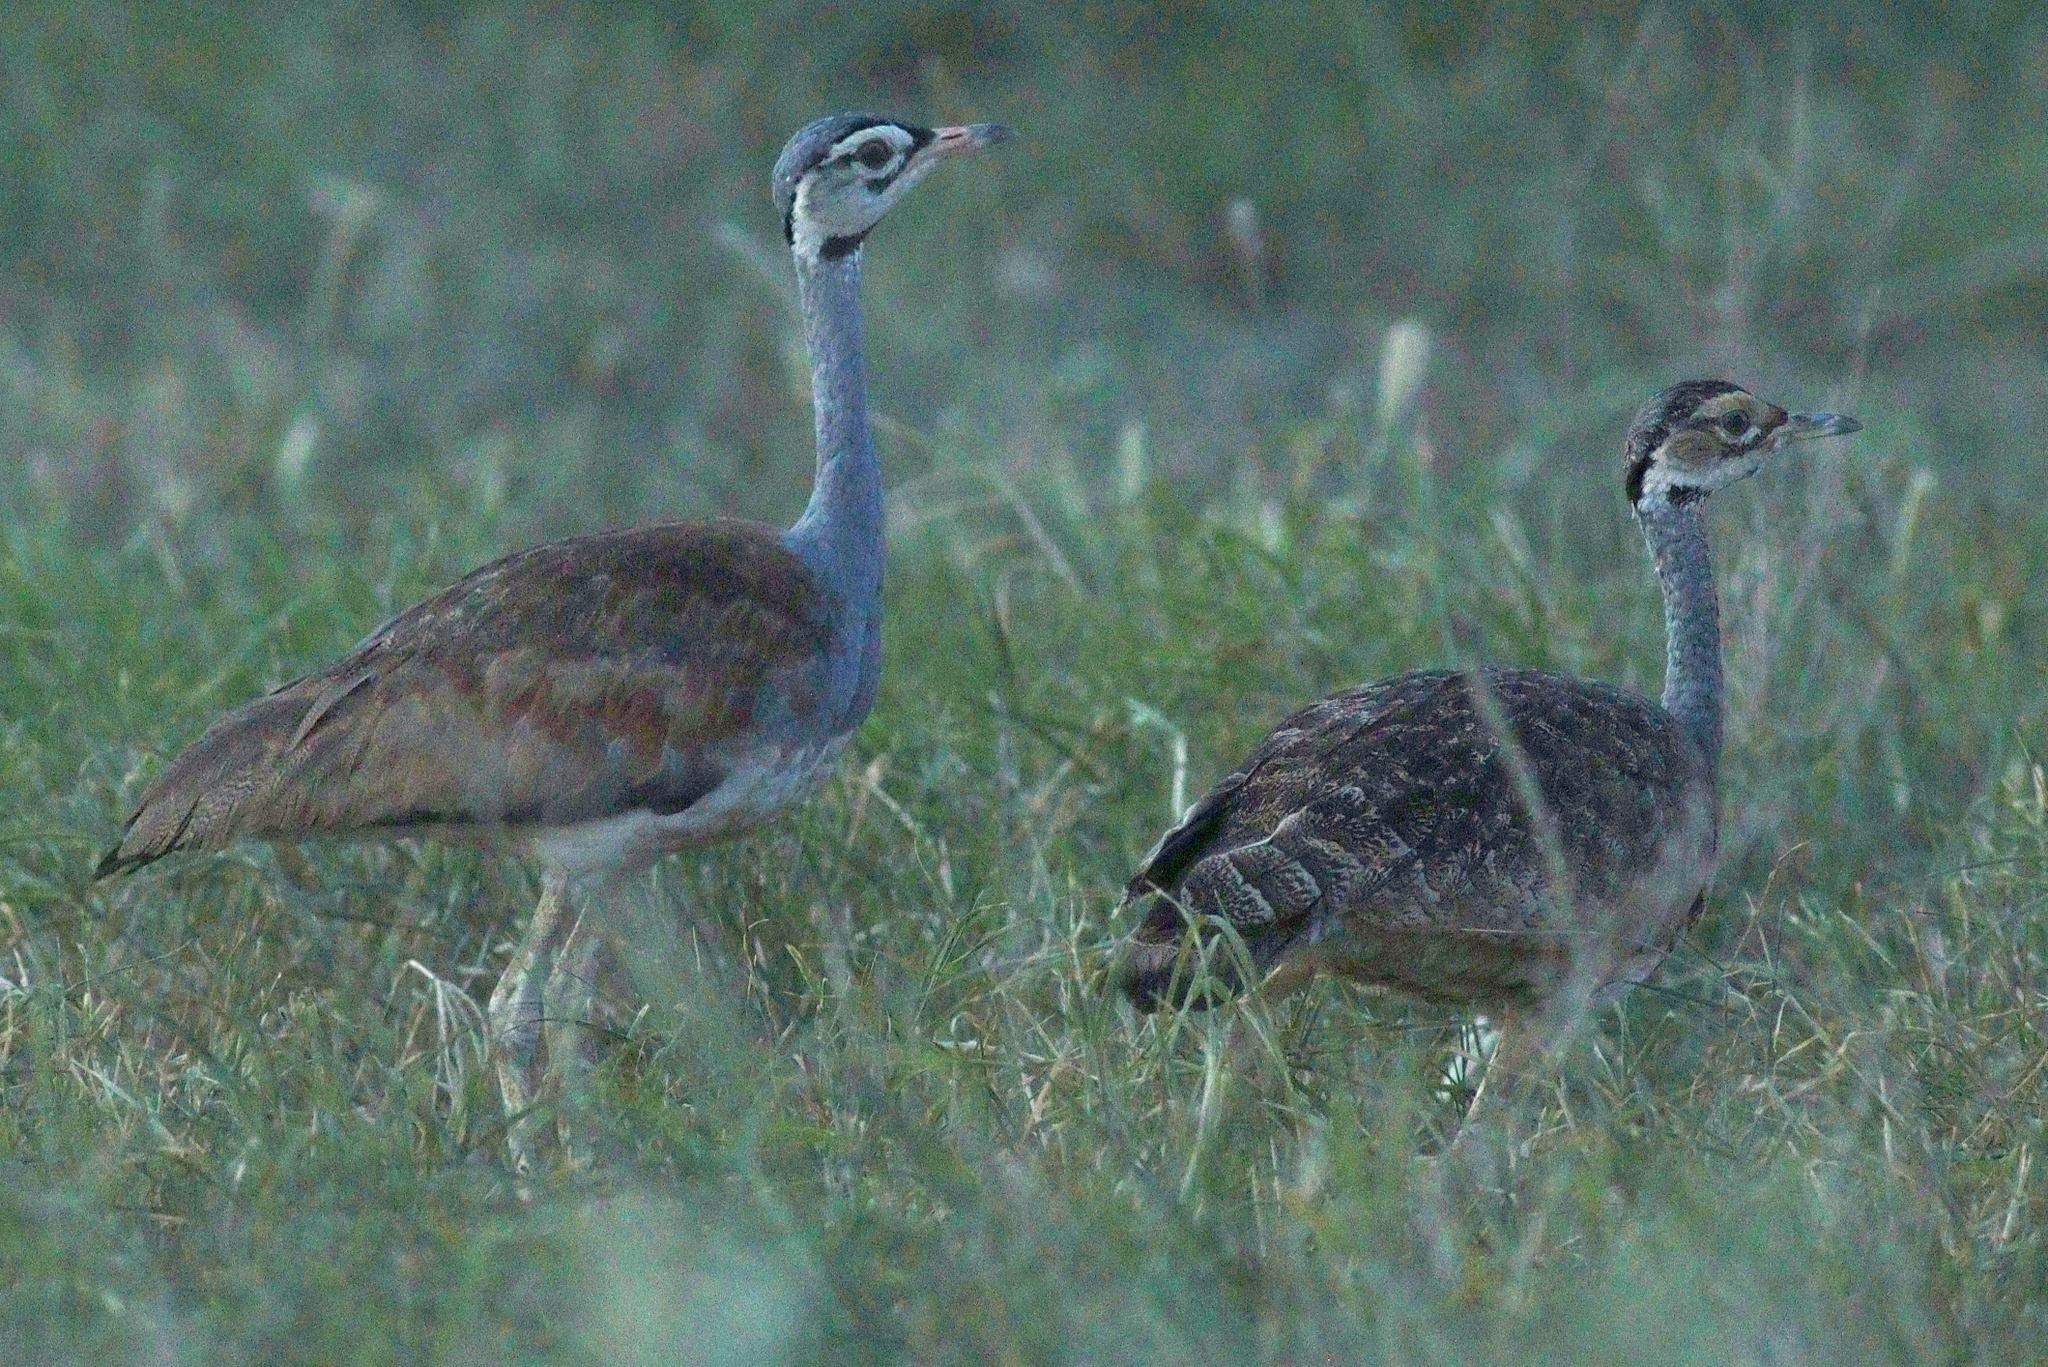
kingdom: Animalia
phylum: Chordata
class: Aves
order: Otidiformes
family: Otididae
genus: Eupodotis
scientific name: Eupodotis senegalensis
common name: White-bellied bustard
